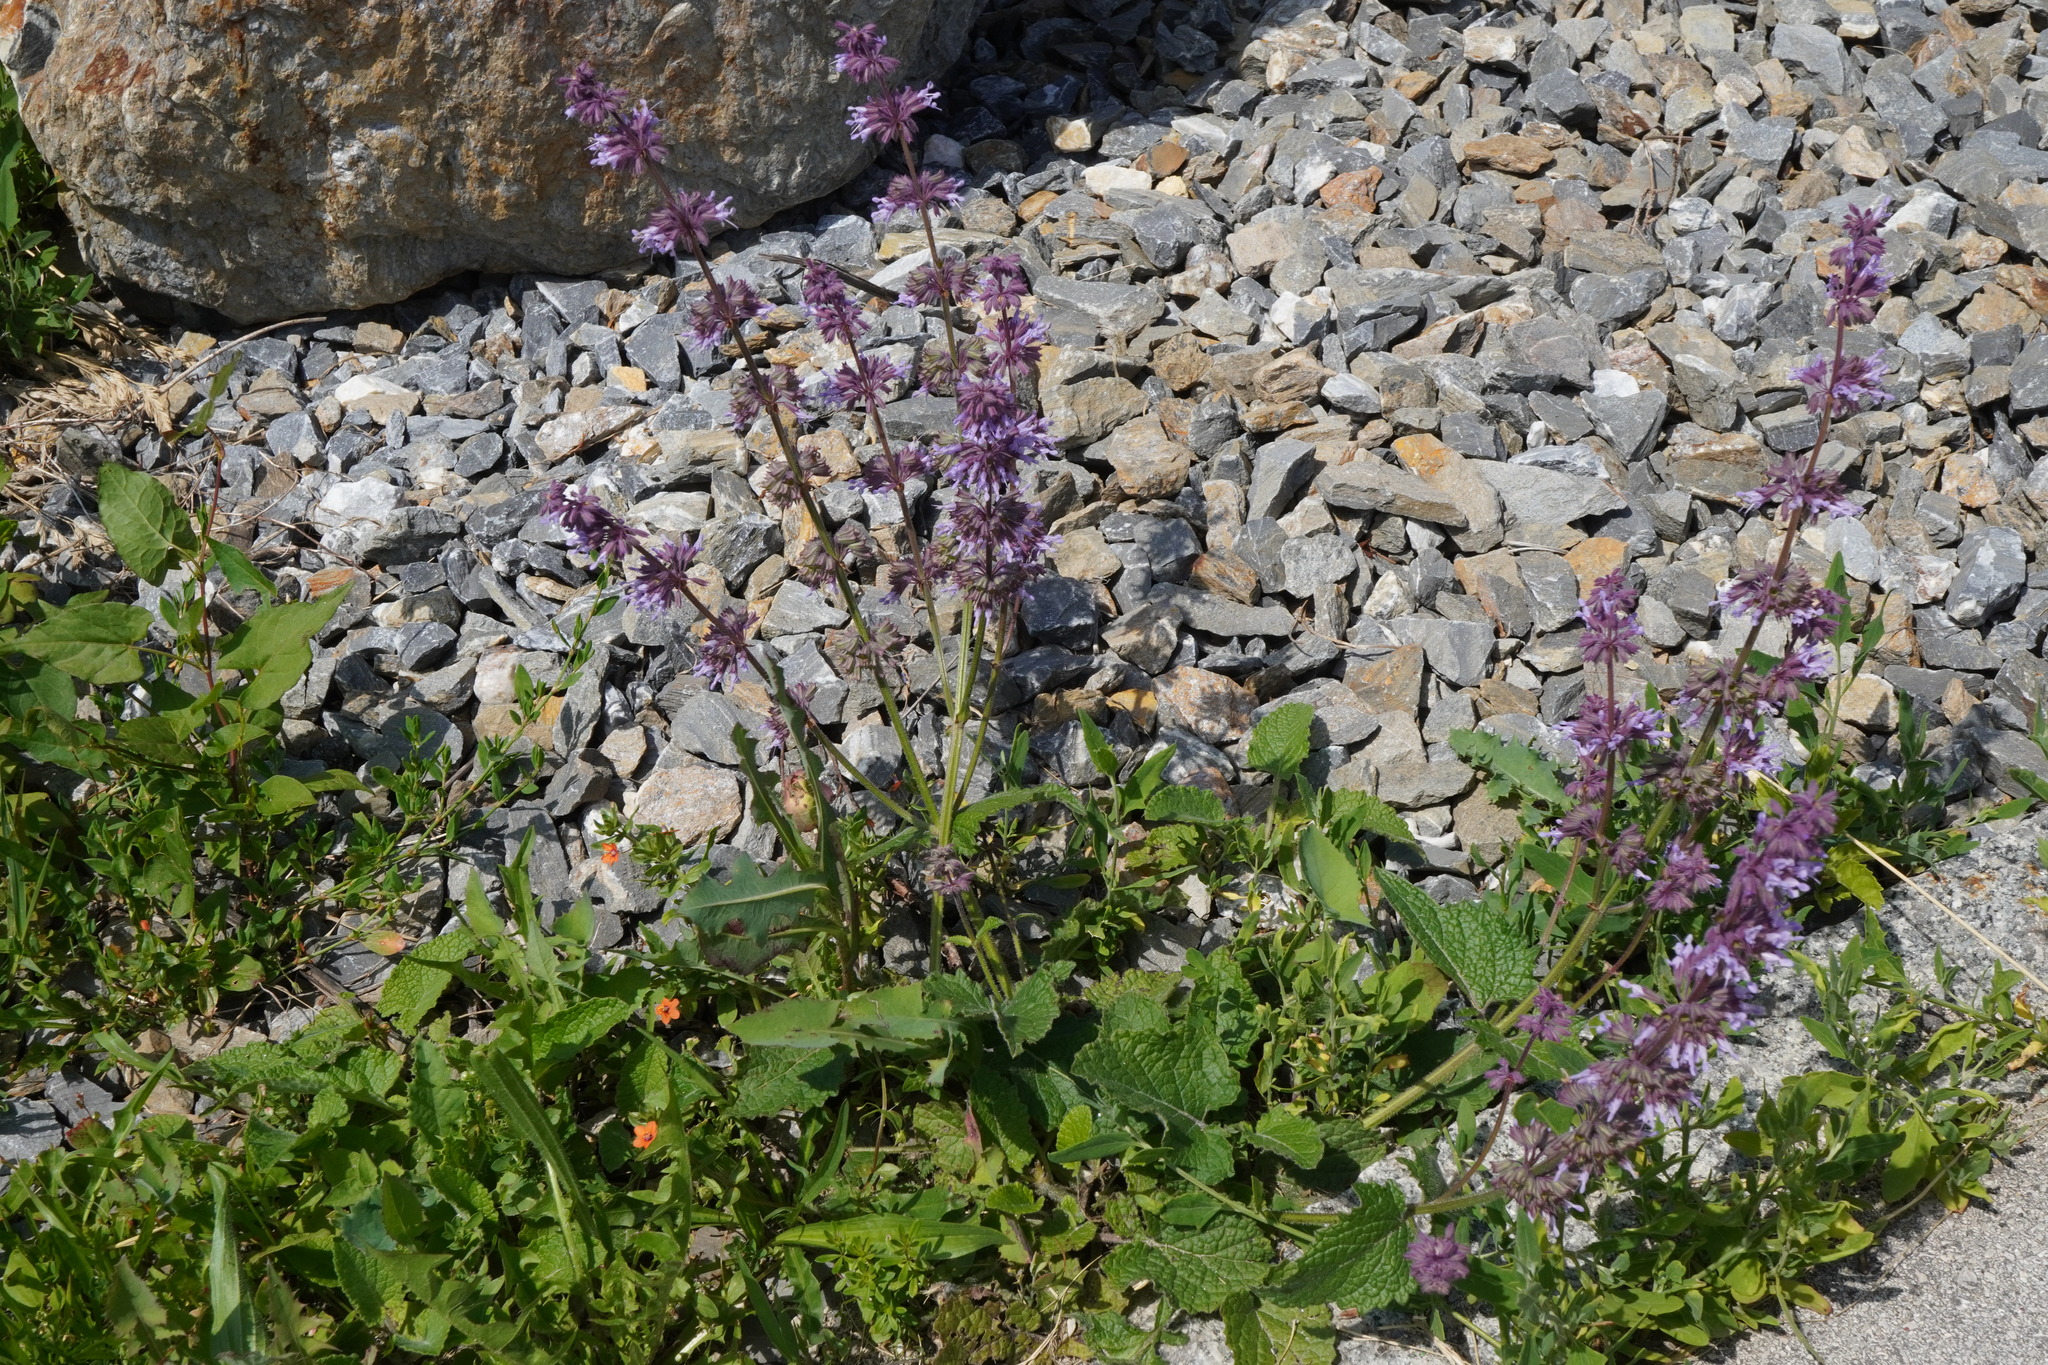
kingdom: Plantae
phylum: Tracheophyta
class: Magnoliopsida
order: Lamiales
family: Lamiaceae
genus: Salvia
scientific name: Salvia verticillata
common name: Whorled clary
